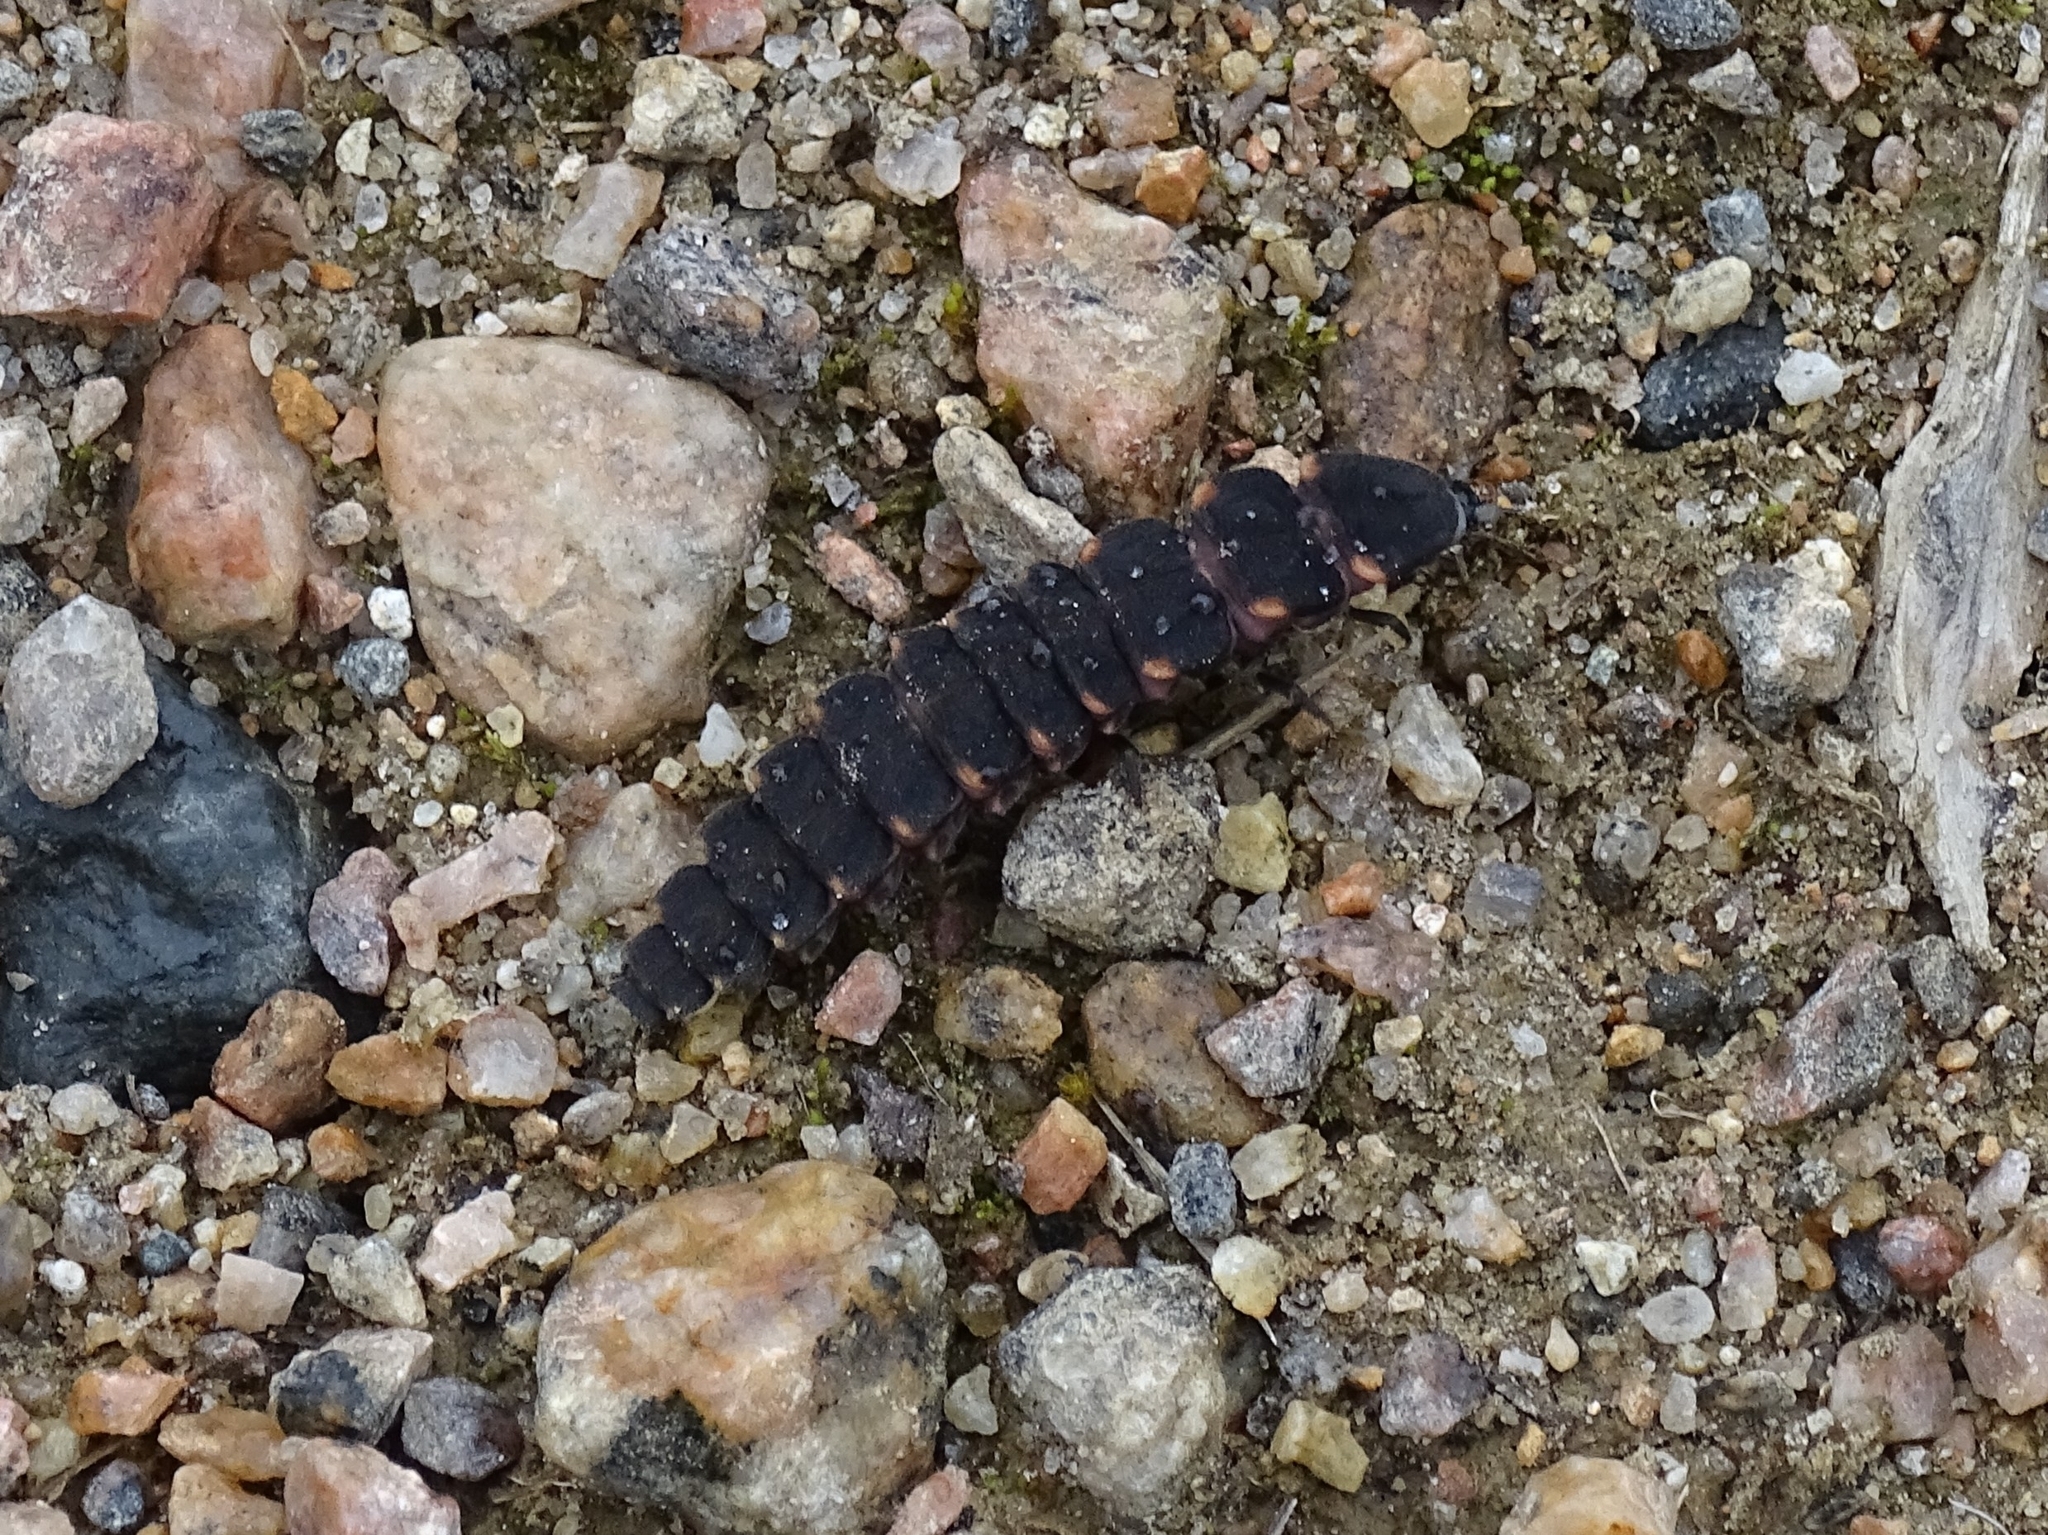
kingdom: Animalia
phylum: Arthropoda
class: Insecta
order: Coleoptera
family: Lampyridae
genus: Lampyris
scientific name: Lampyris noctiluca
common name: Glow-worm
